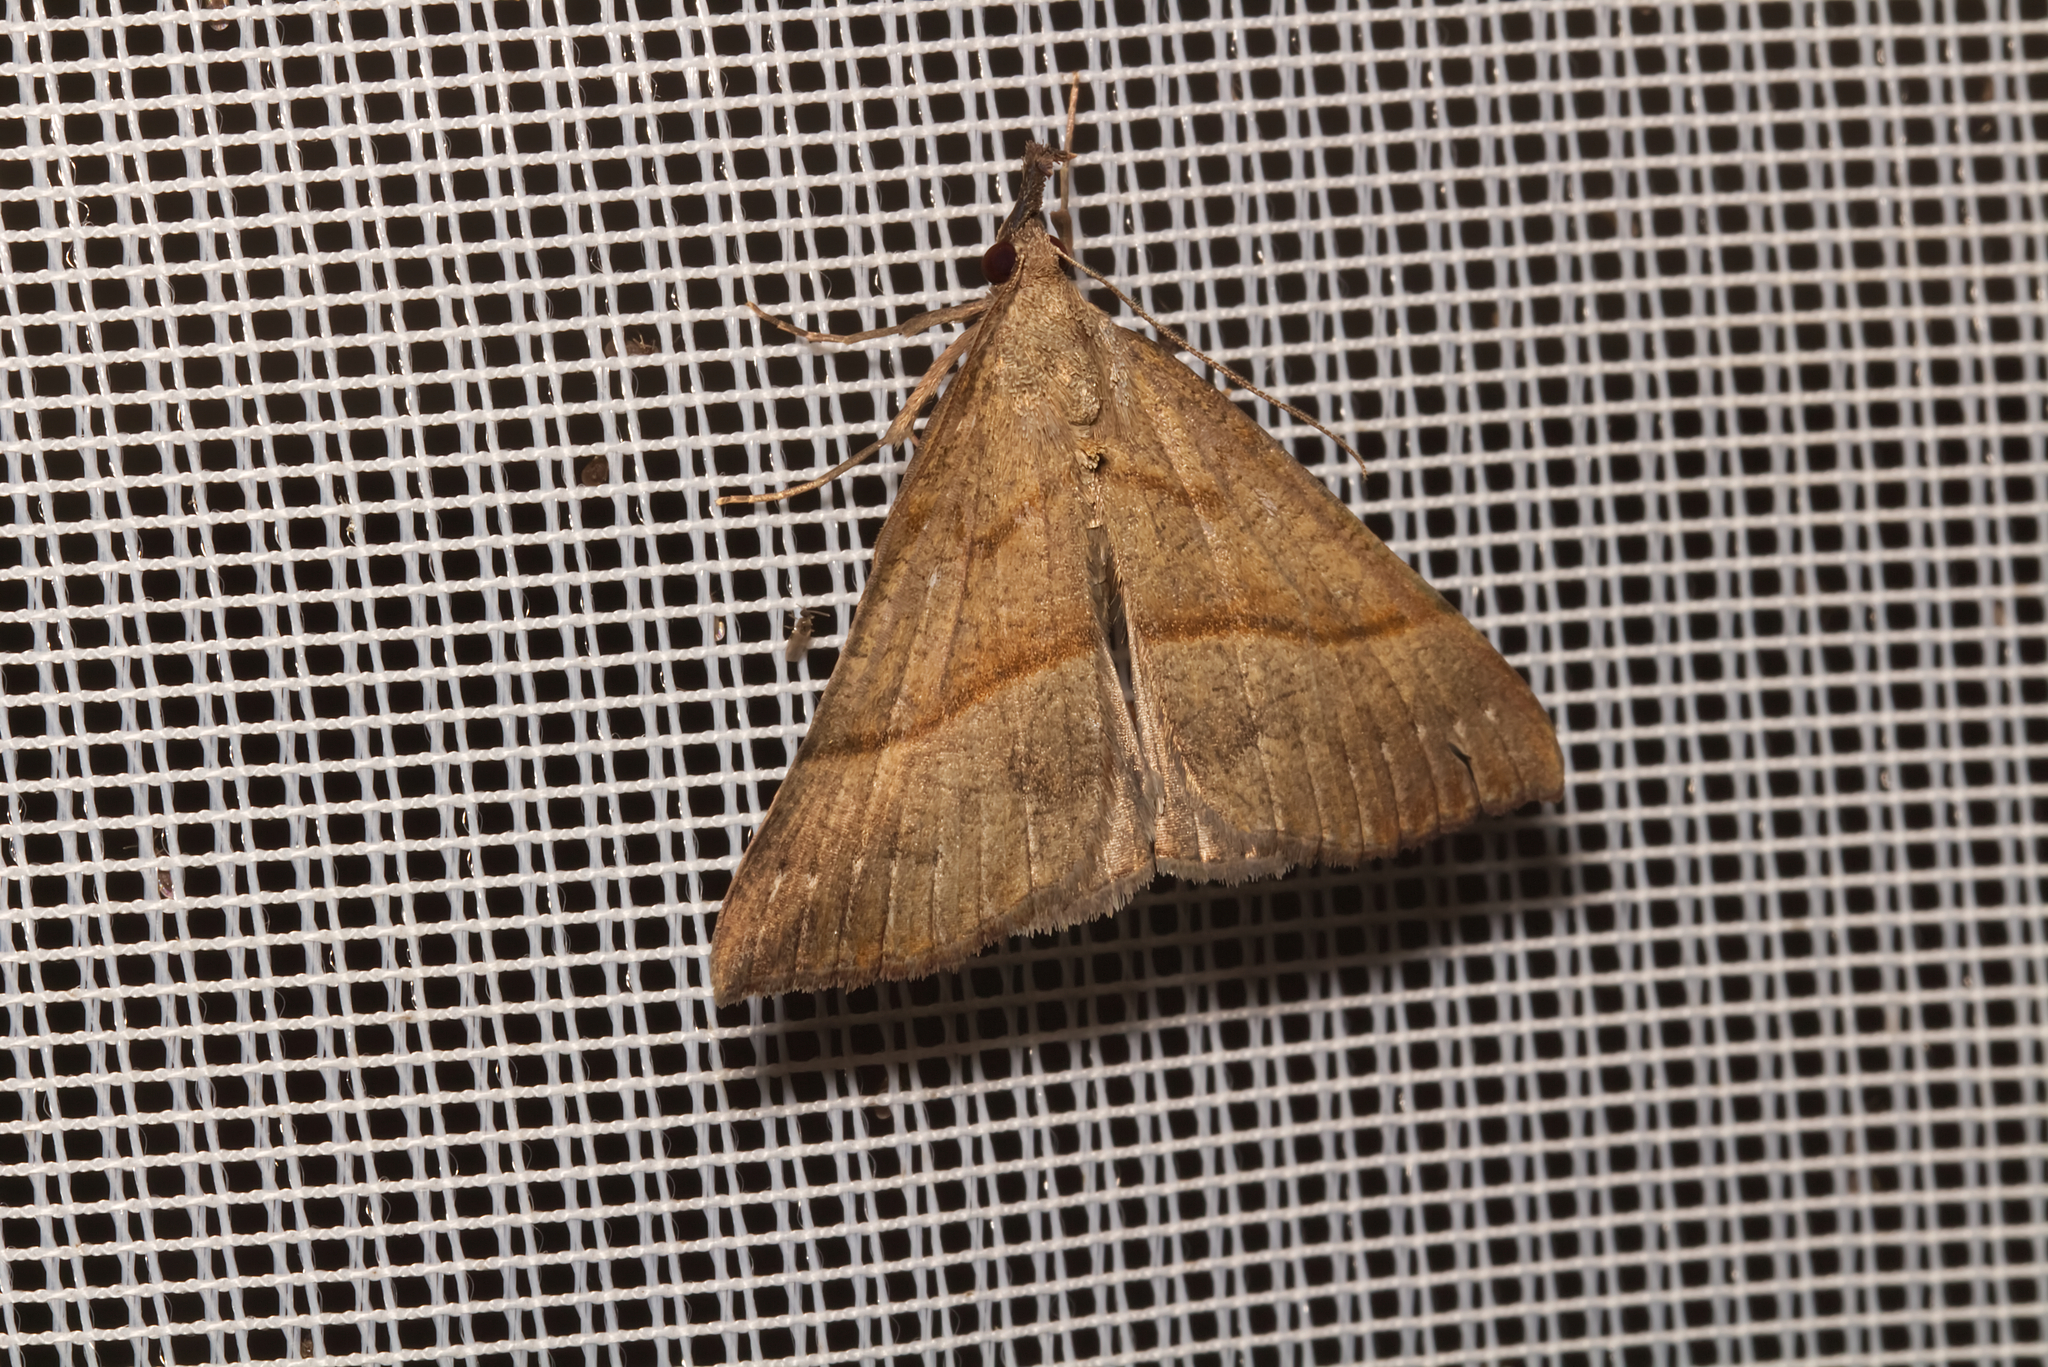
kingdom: Animalia
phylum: Arthropoda
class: Insecta
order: Lepidoptera
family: Erebidae
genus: Hypena
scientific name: Hypena proboscidalis
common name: Snout
